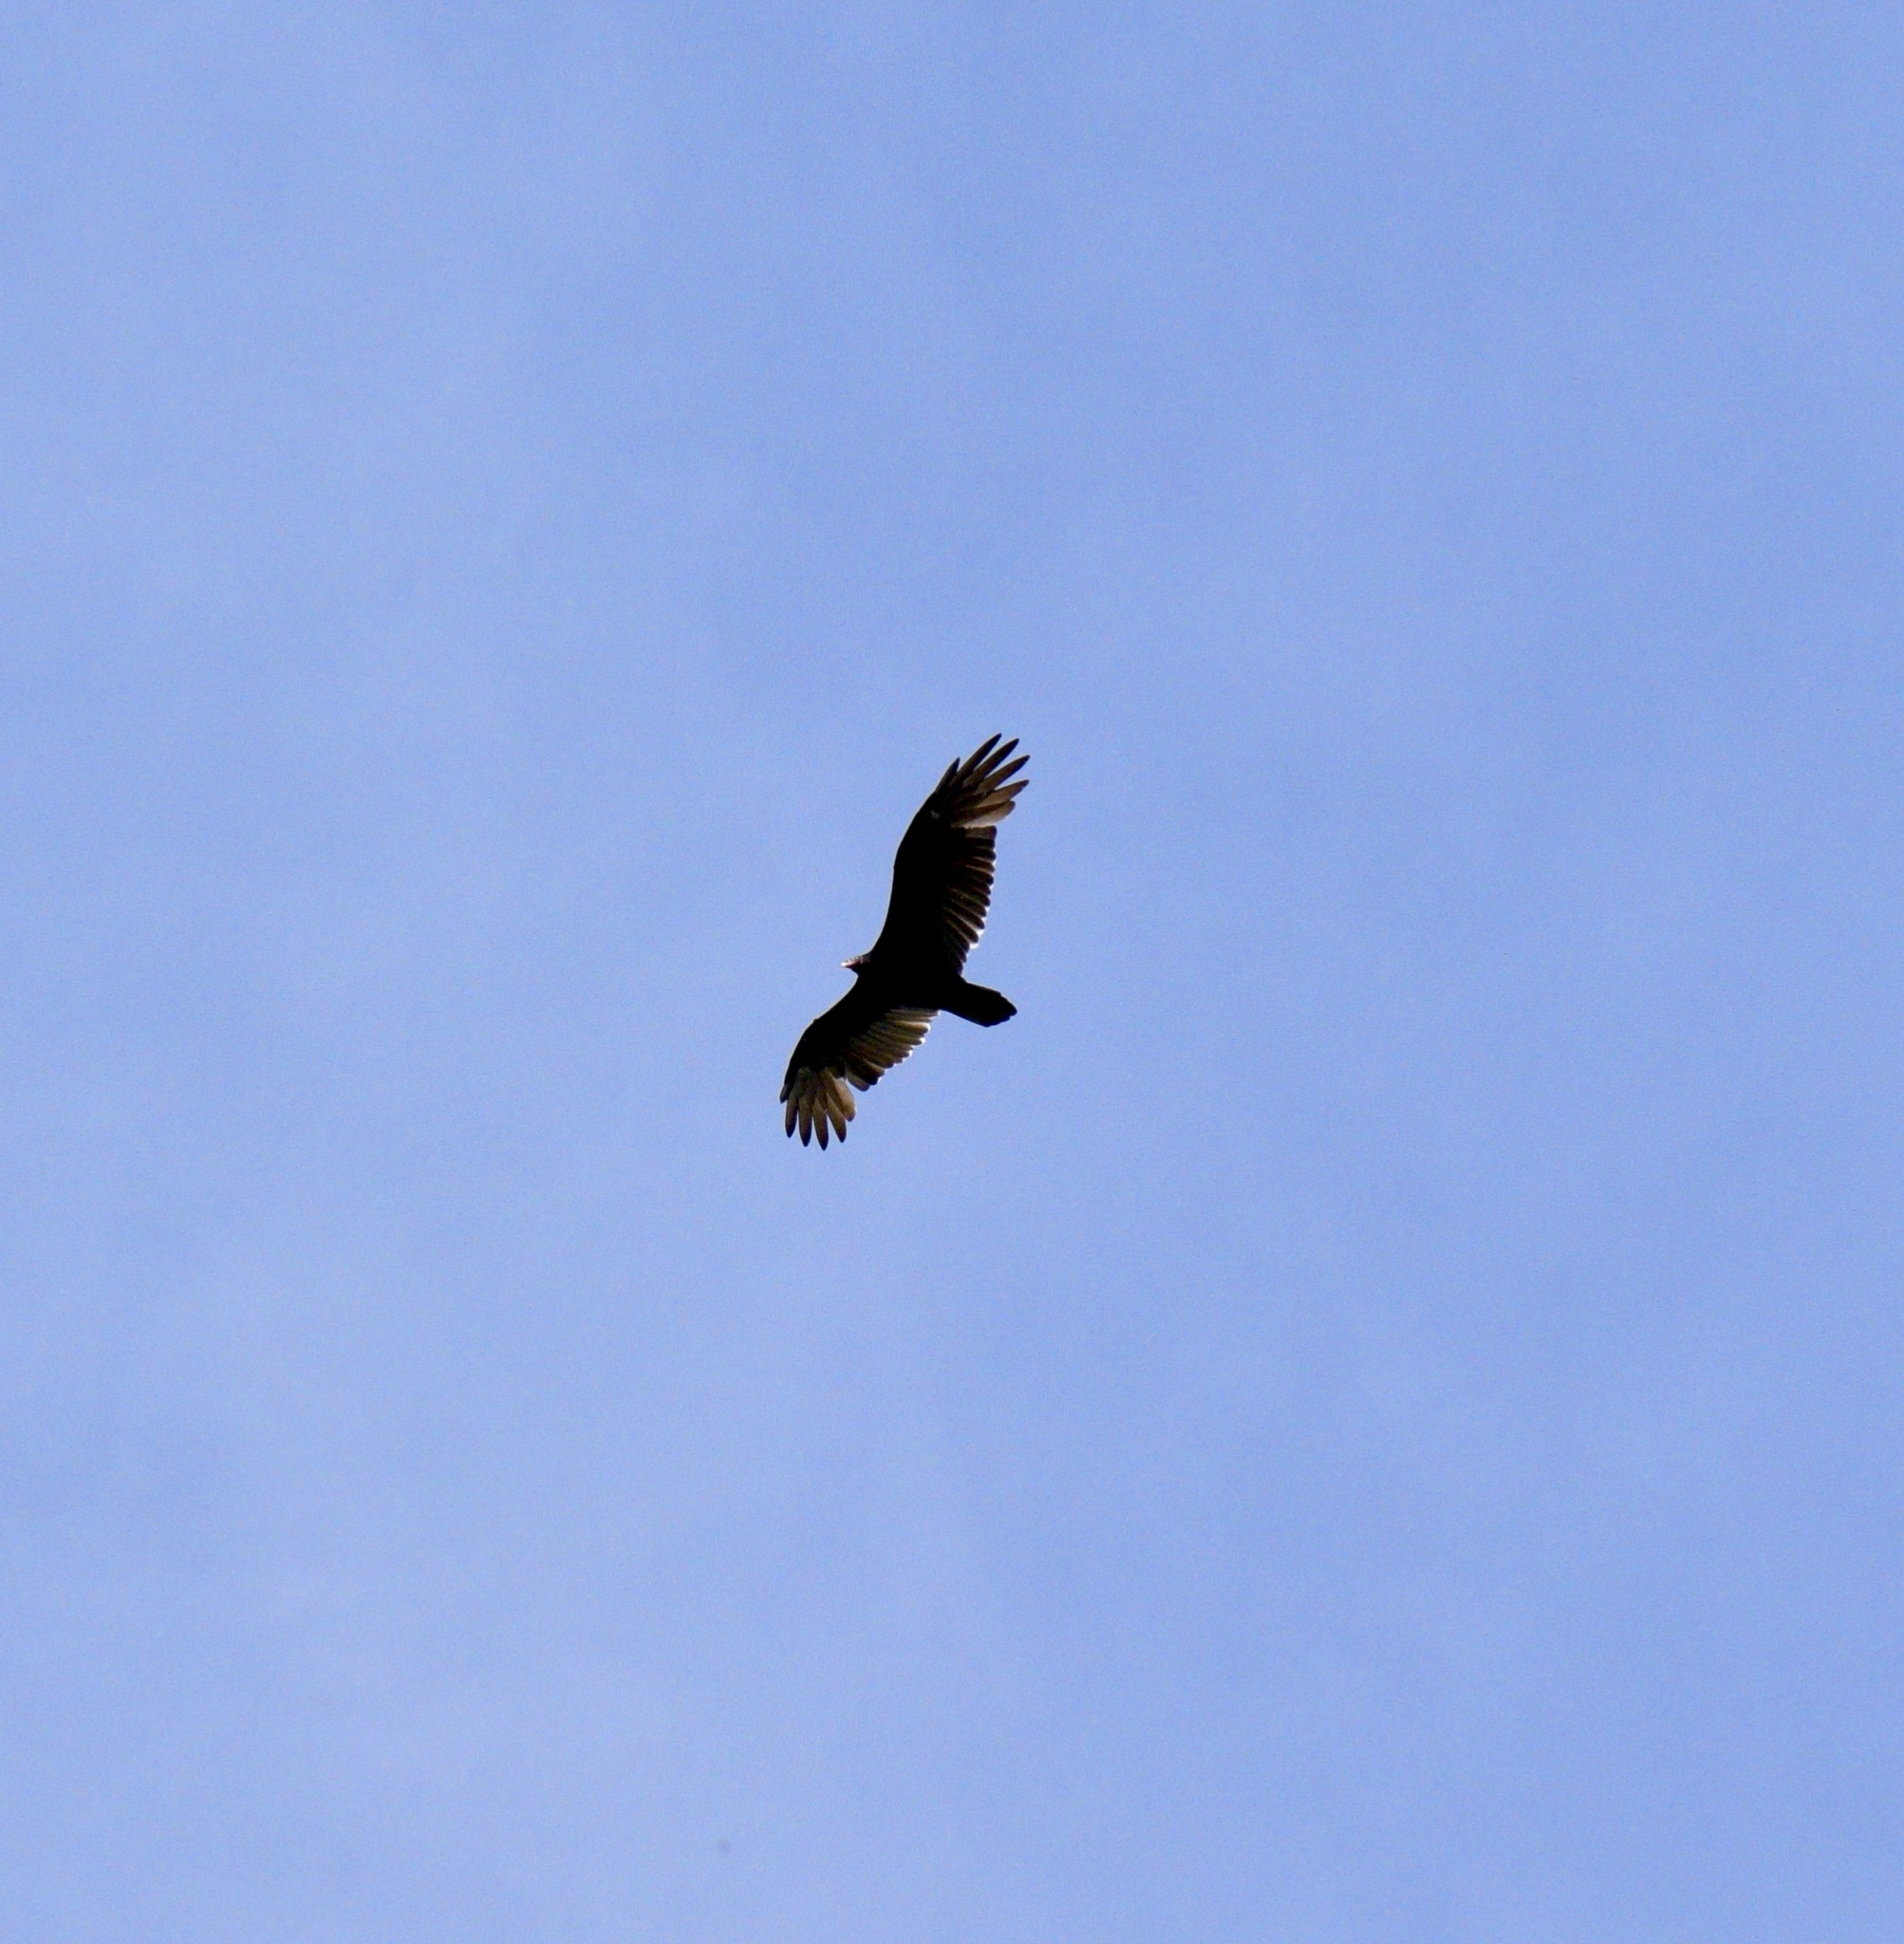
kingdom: Animalia
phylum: Chordata
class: Aves
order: Accipitriformes
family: Cathartidae
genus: Cathartes
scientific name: Cathartes aura
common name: Turkey vulture
